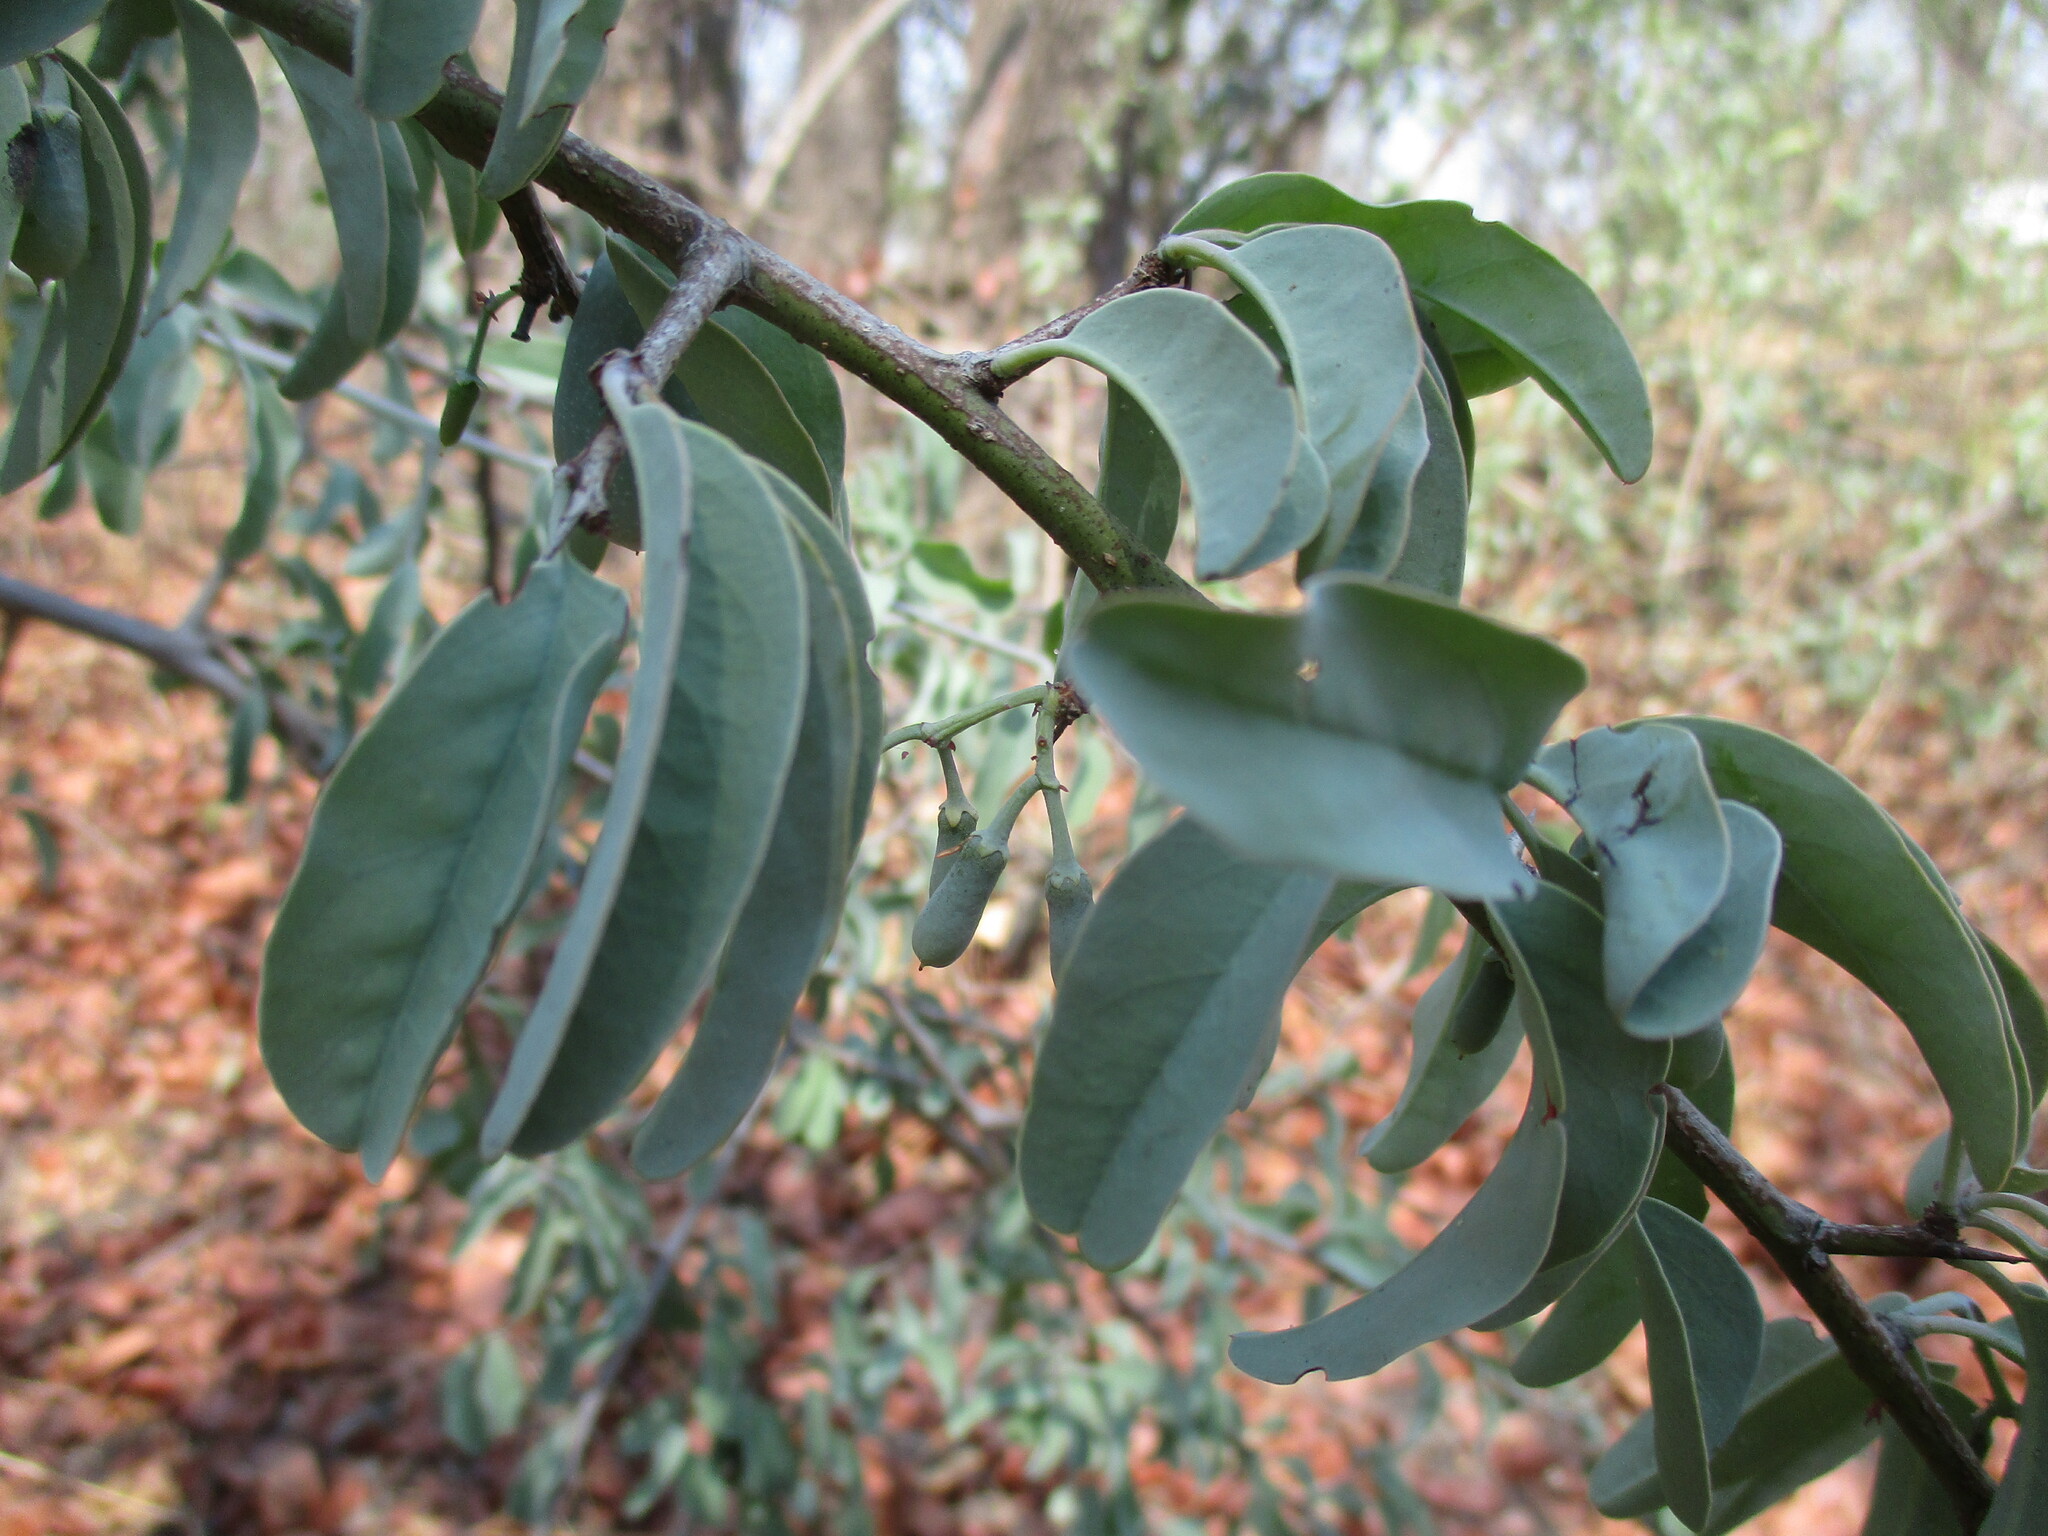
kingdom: Plantae
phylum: Tracheophyta
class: Magnoliopsida
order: Santalales
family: Ximeniaceae
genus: Ximenia
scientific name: Ximenia americana
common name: Tallowwood
